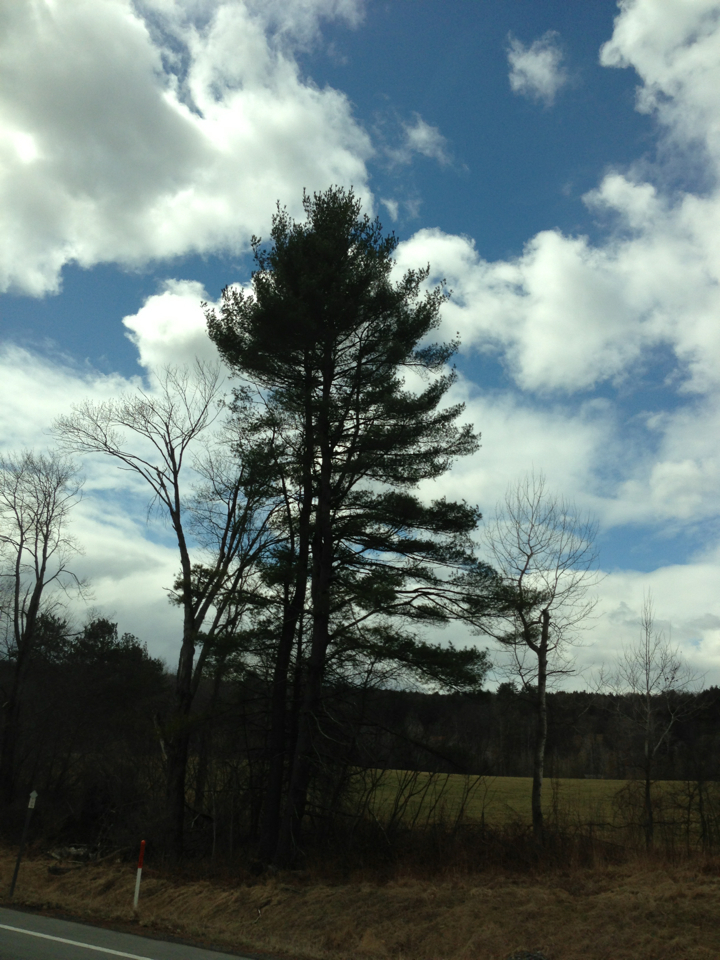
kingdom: Plantae
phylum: Tracheophyta
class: Pinopsida
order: Pinales
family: Pinaceae
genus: Pinus
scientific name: Pinus strobus
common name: Weymouth pine
